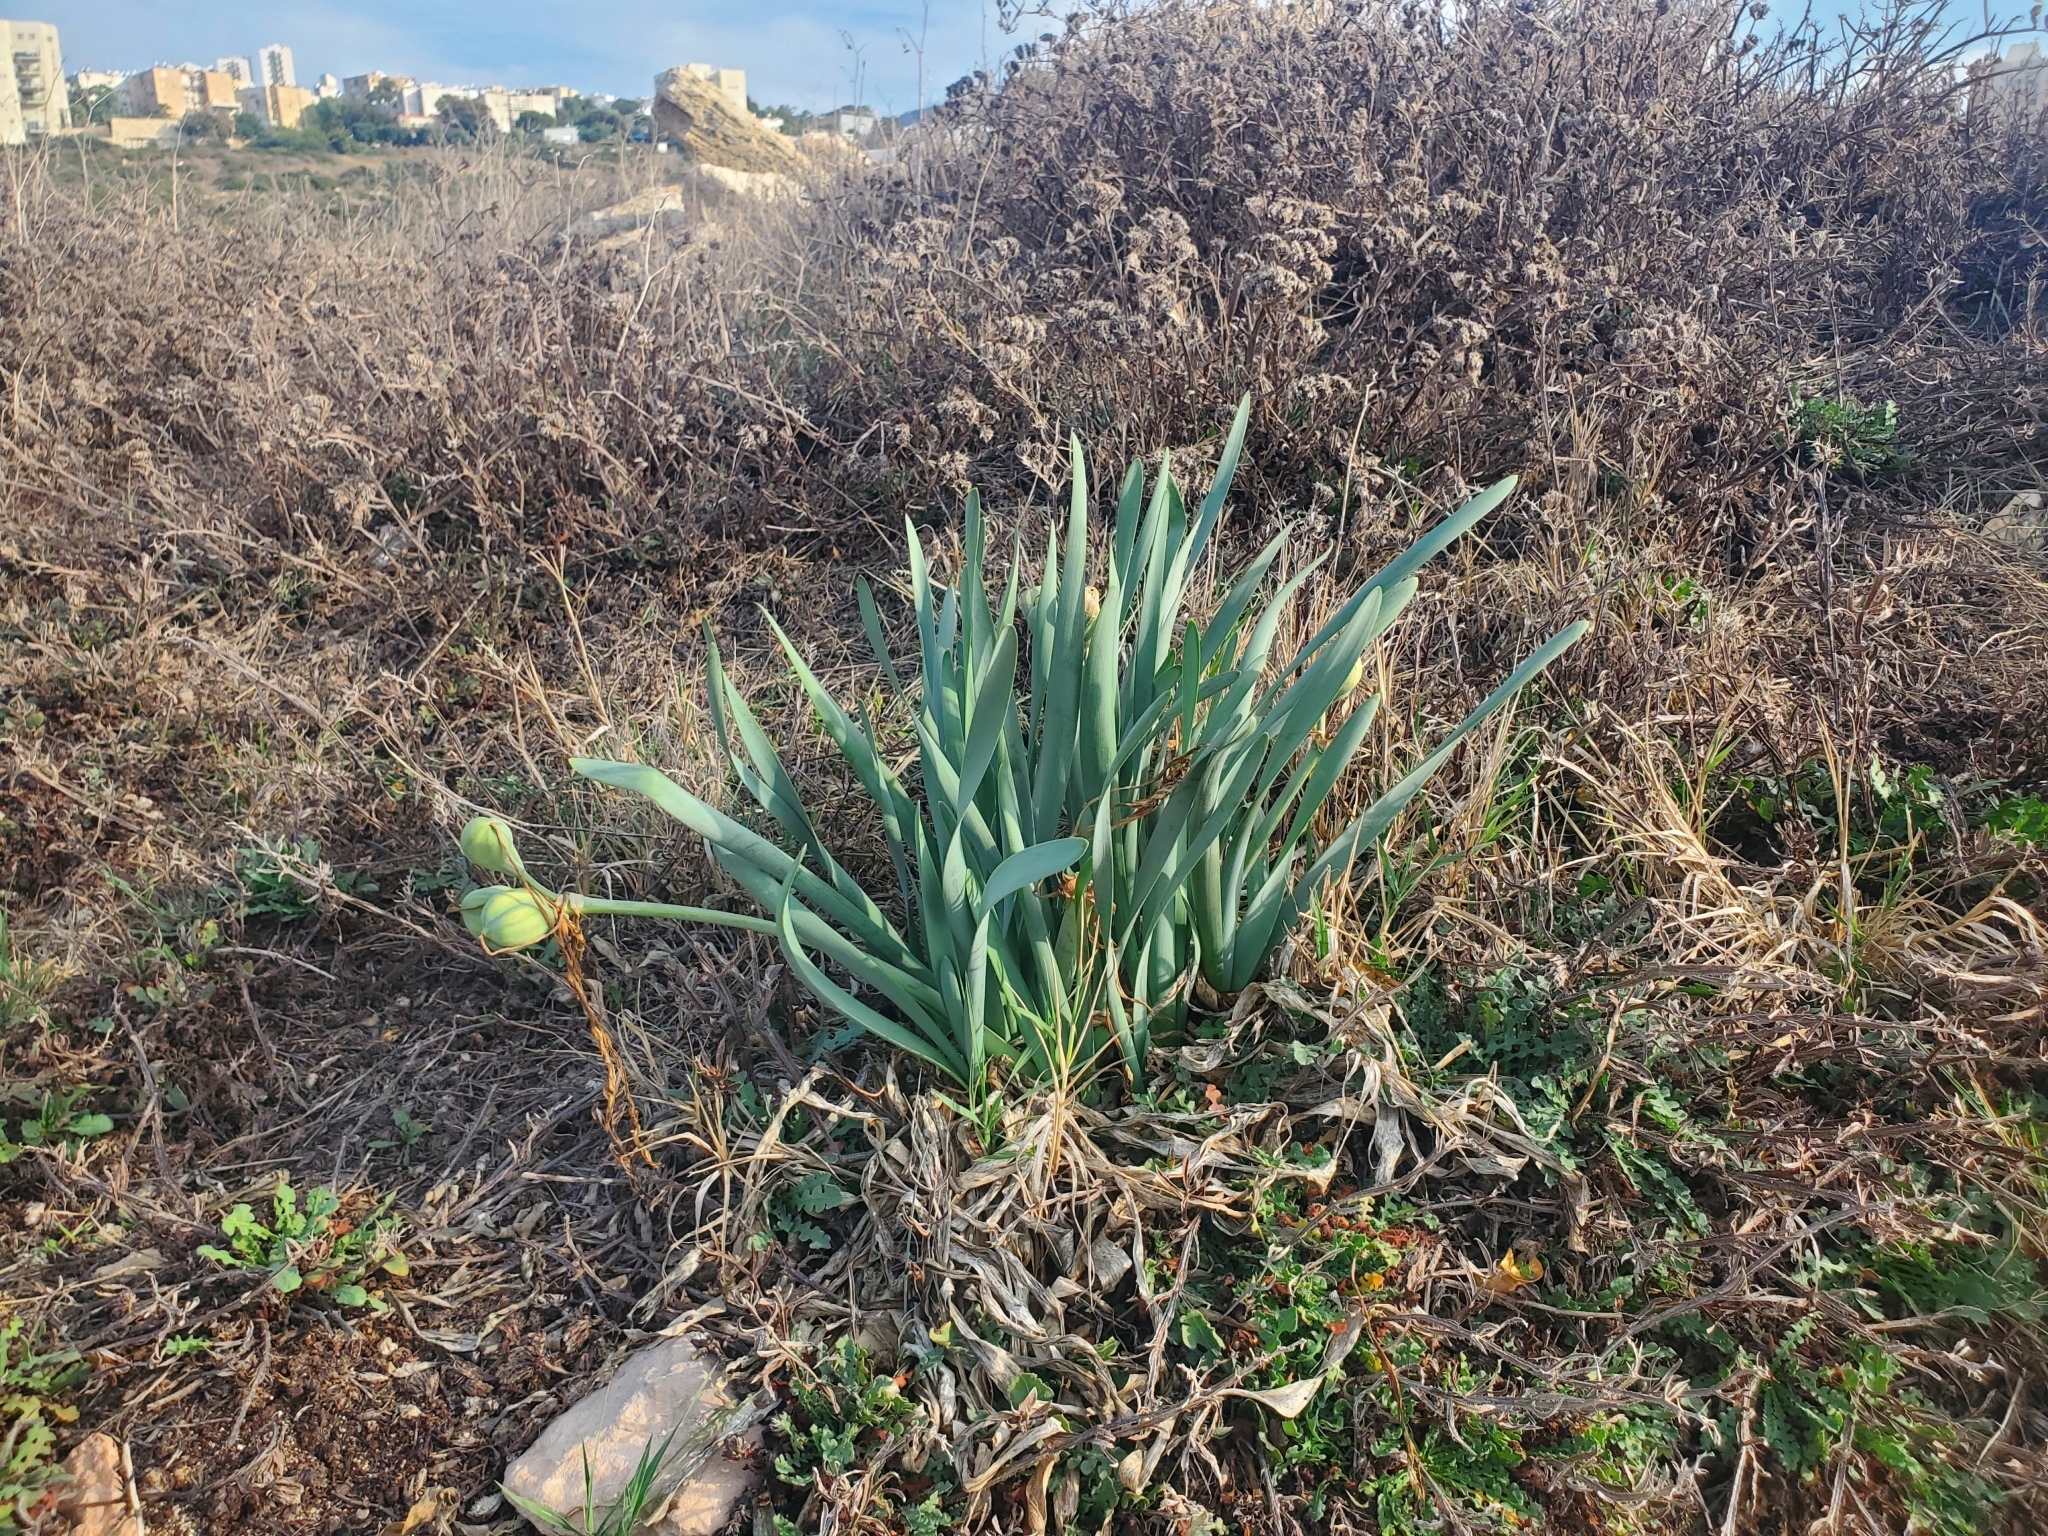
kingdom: Plantae
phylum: Tracheophyta
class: Liliopsida
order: Asparagales
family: Amaryllidaceae
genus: Pancratium
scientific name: Pancratium maritimum
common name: Sea-daffodil
